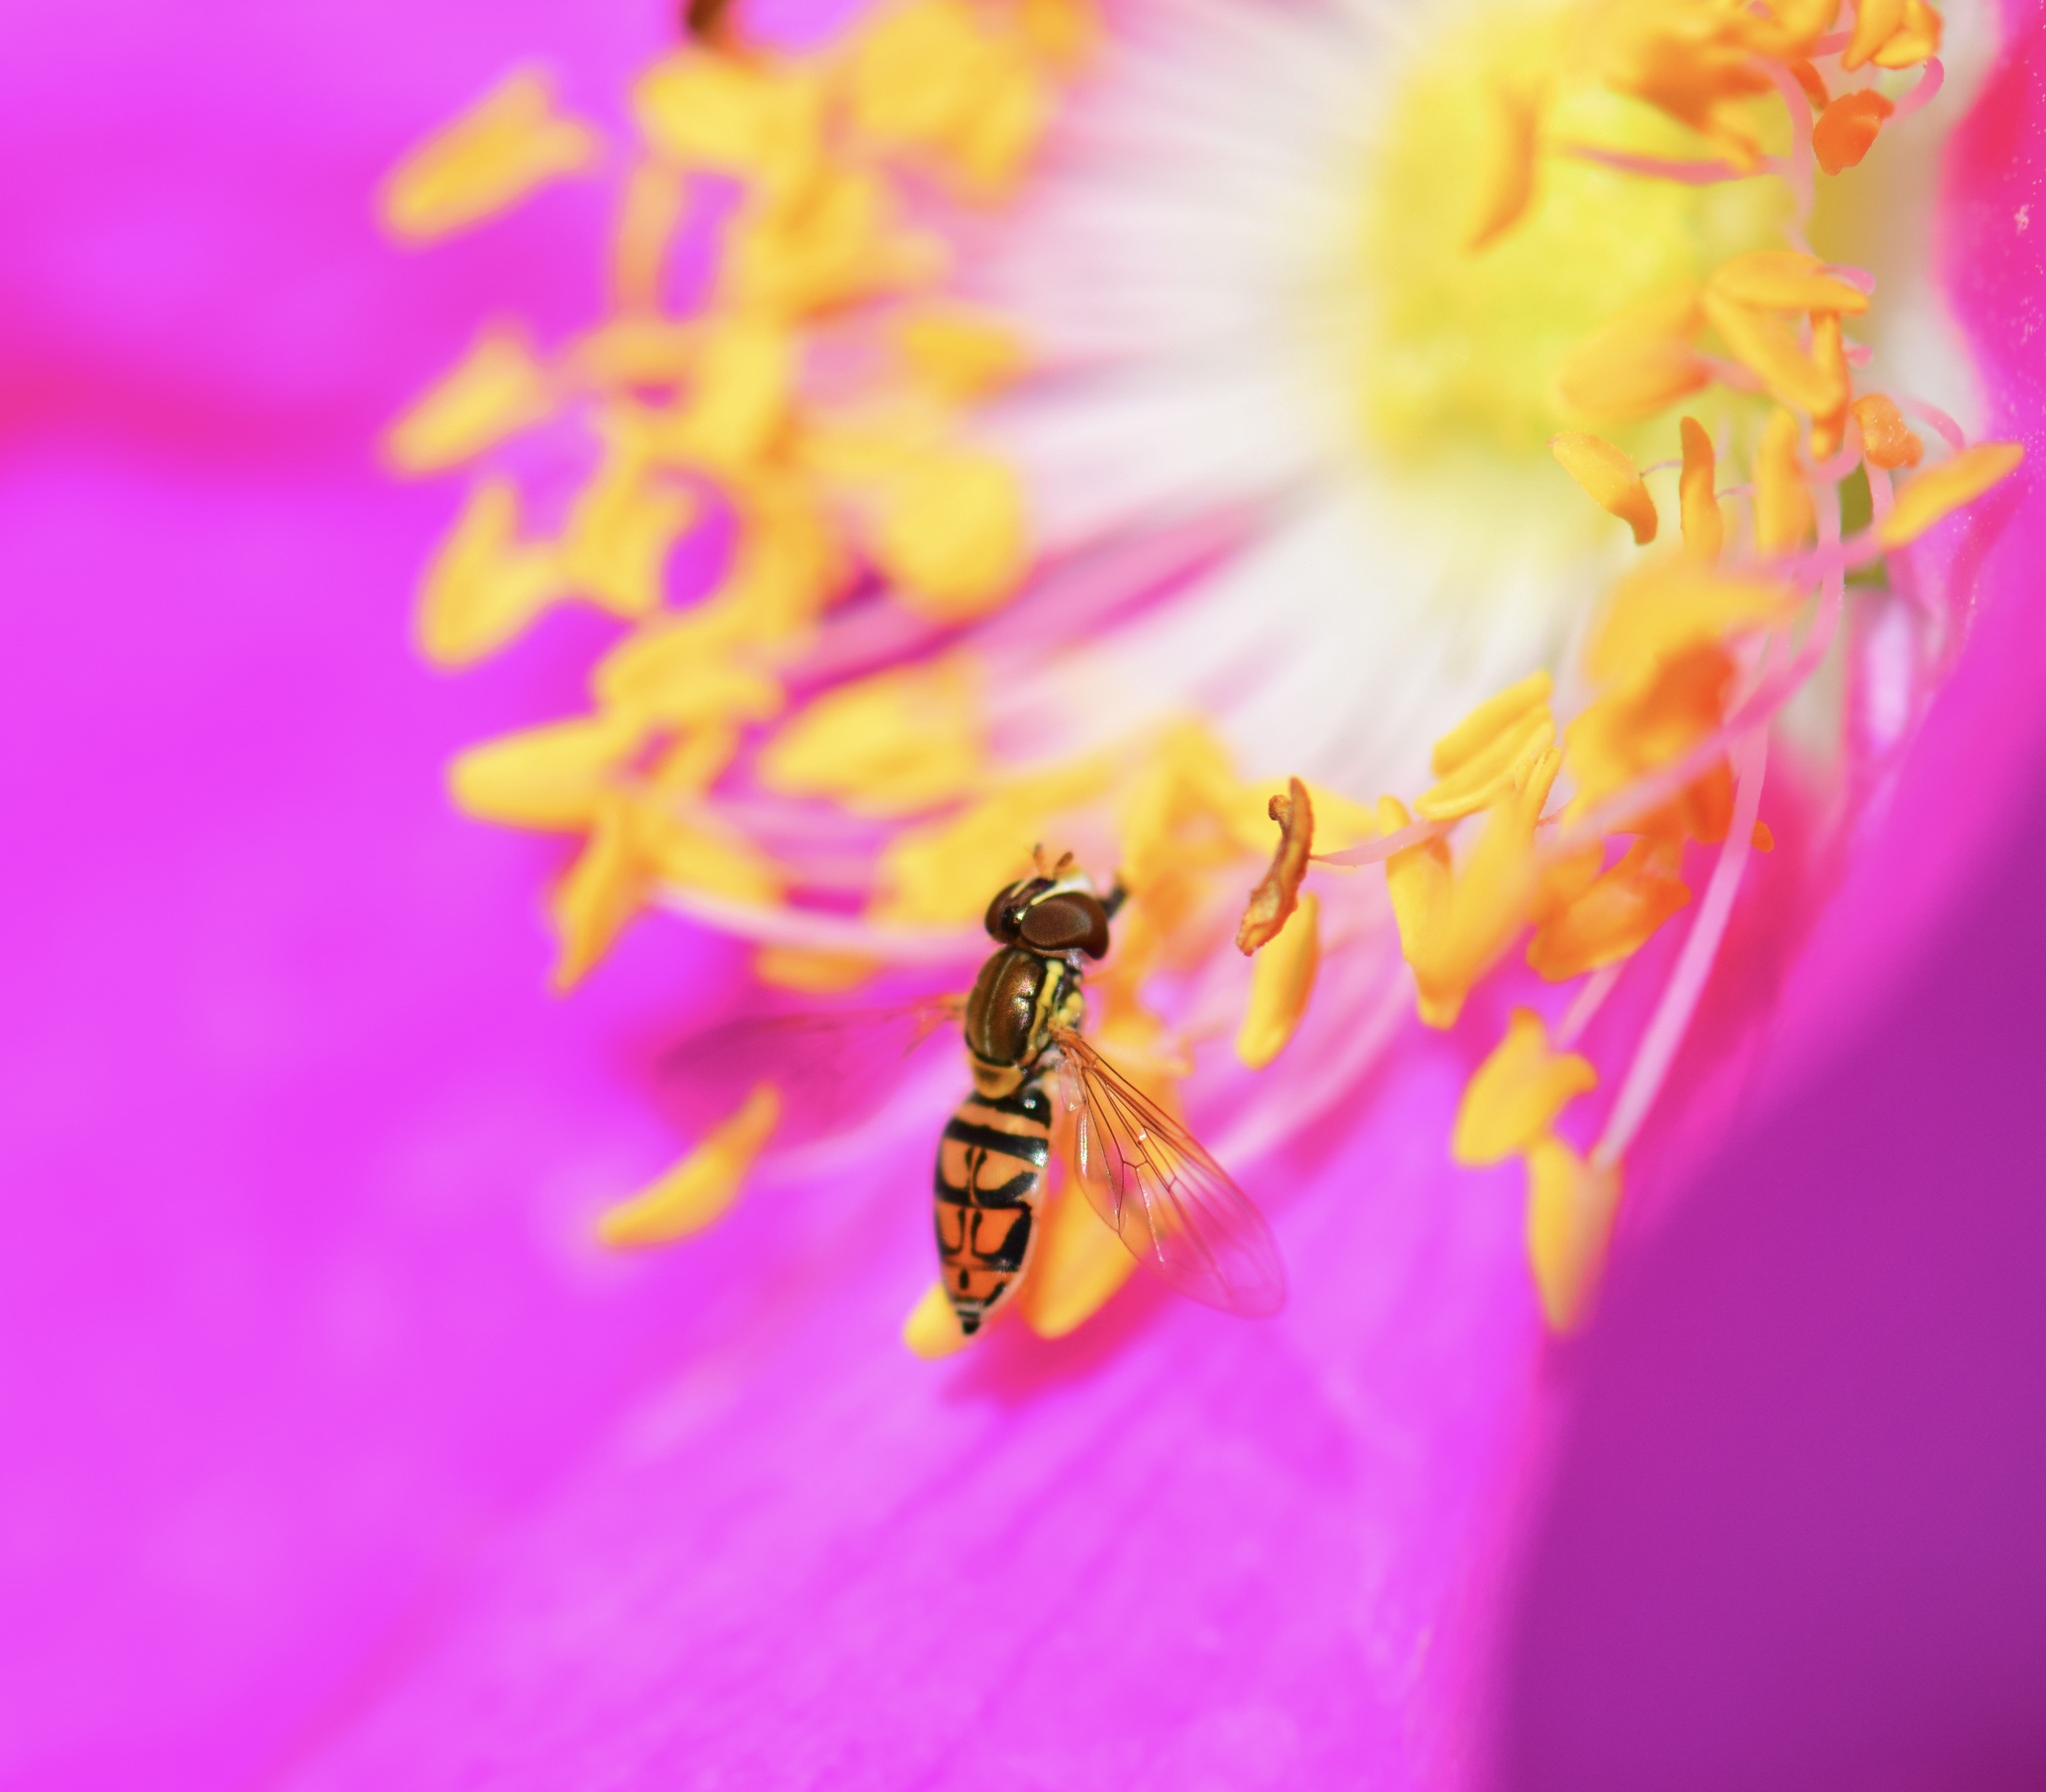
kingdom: Animalia
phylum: Arthropoda
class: Insecta
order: Diptera
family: Syrphidae
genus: Toxomerus
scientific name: Toxomerus marginatus
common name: Syrphid fly
